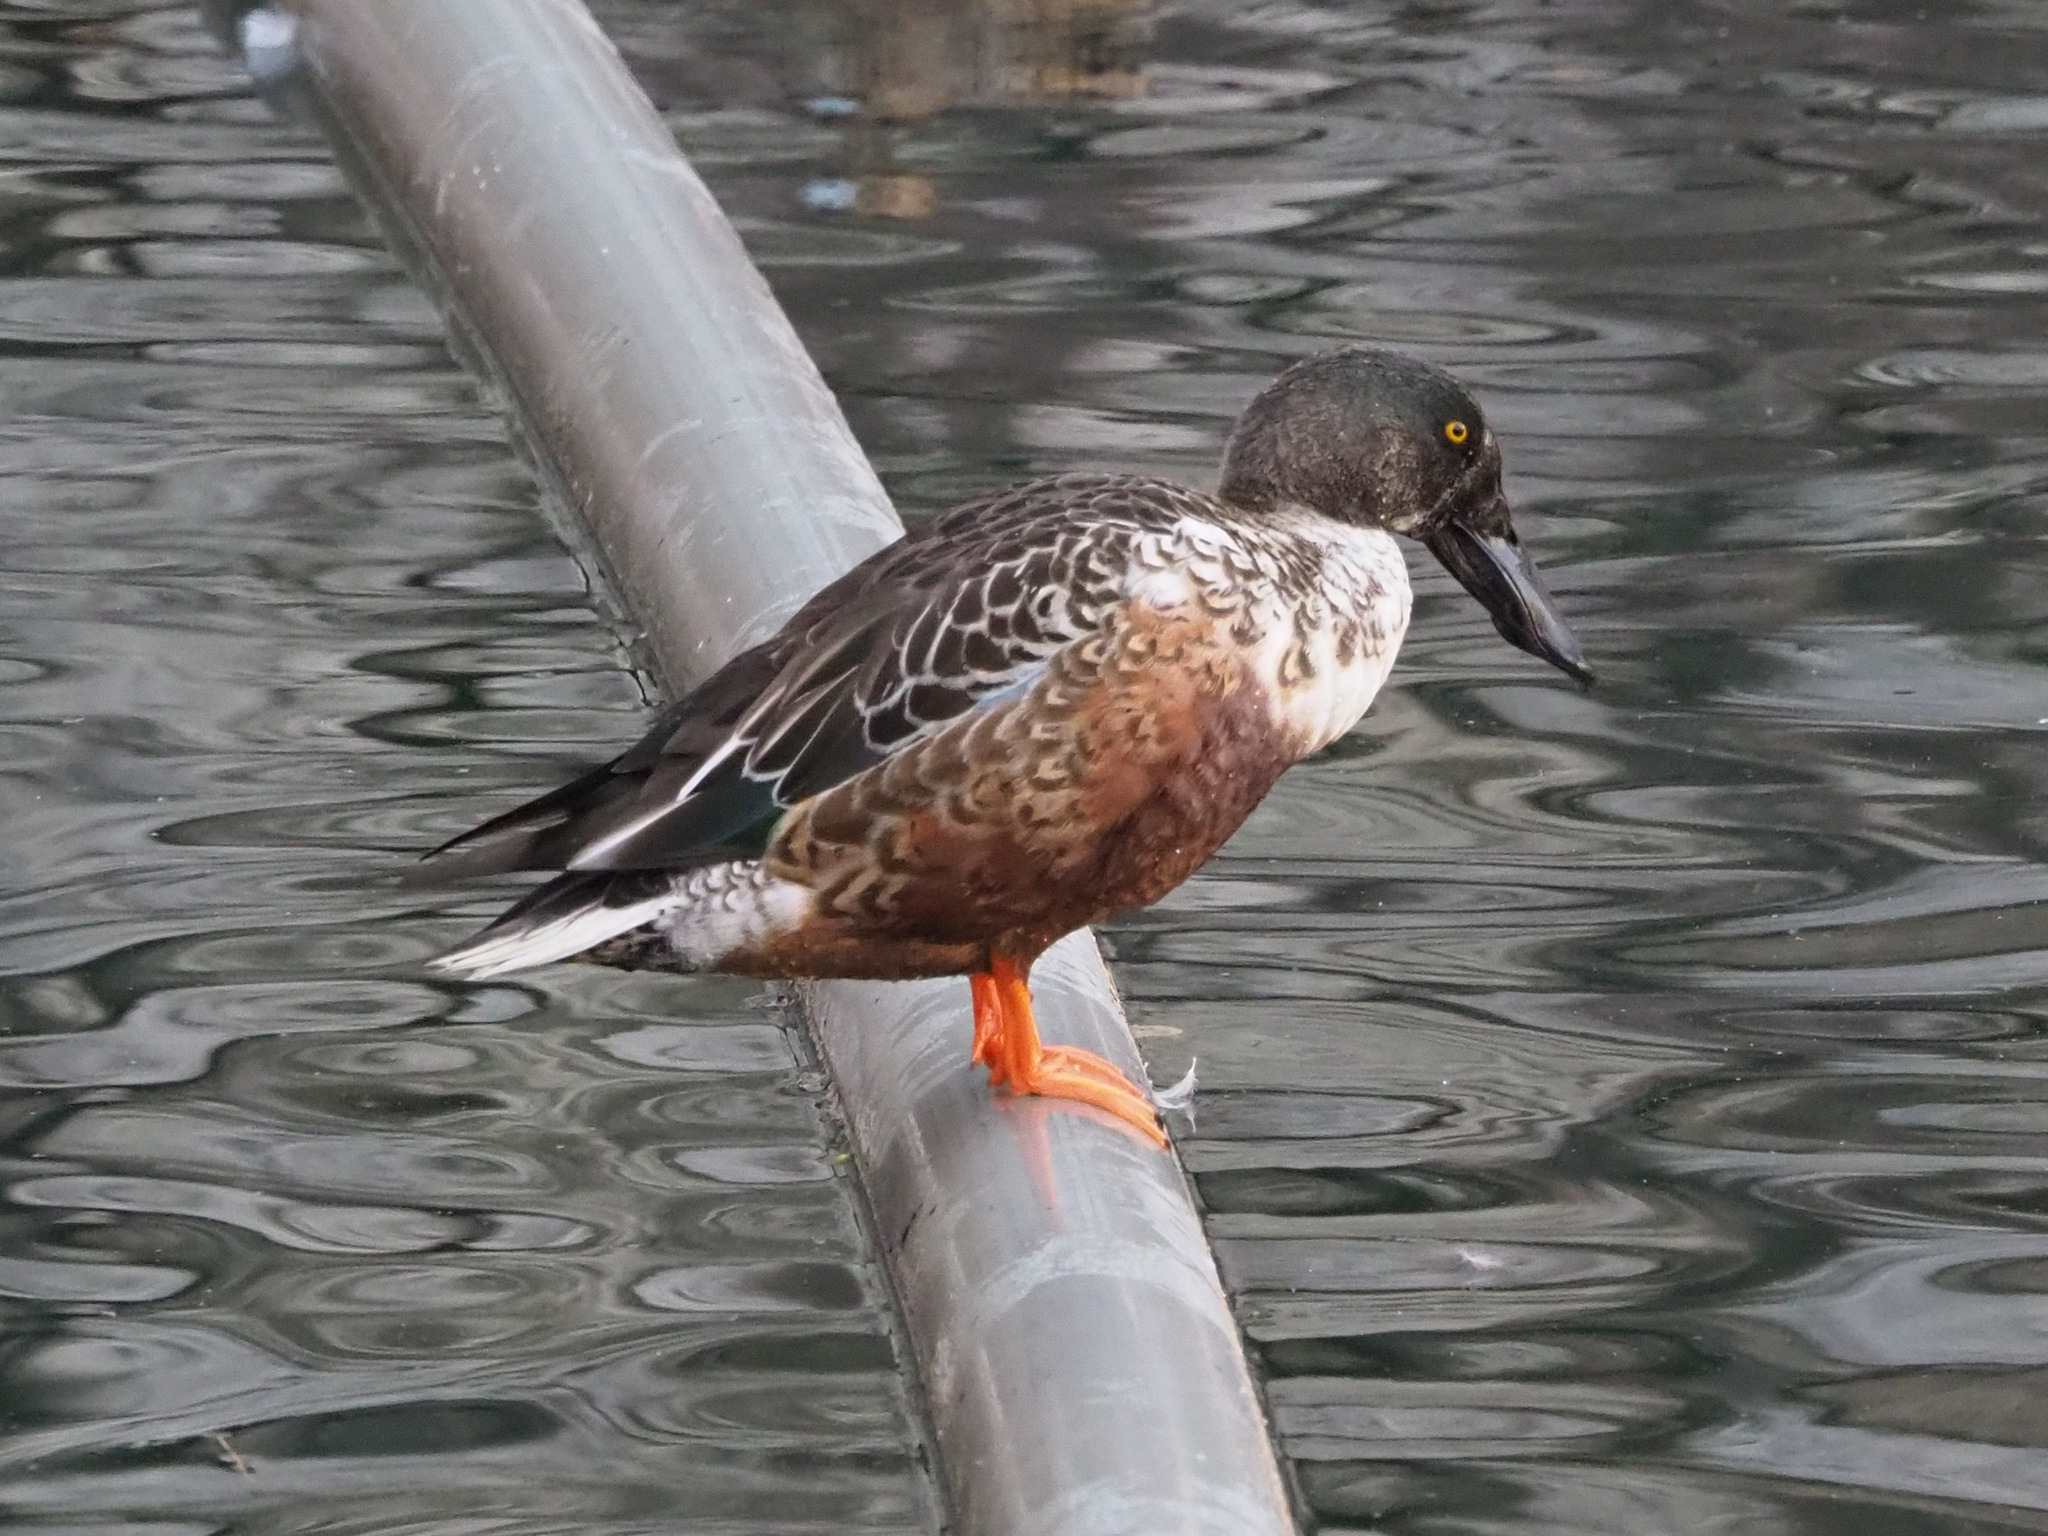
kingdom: Animalia
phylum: Chordata
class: Aves
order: Anseriformes
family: Anatidae
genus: Spatula
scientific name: Spatula clypeata
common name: Northern shoveler
